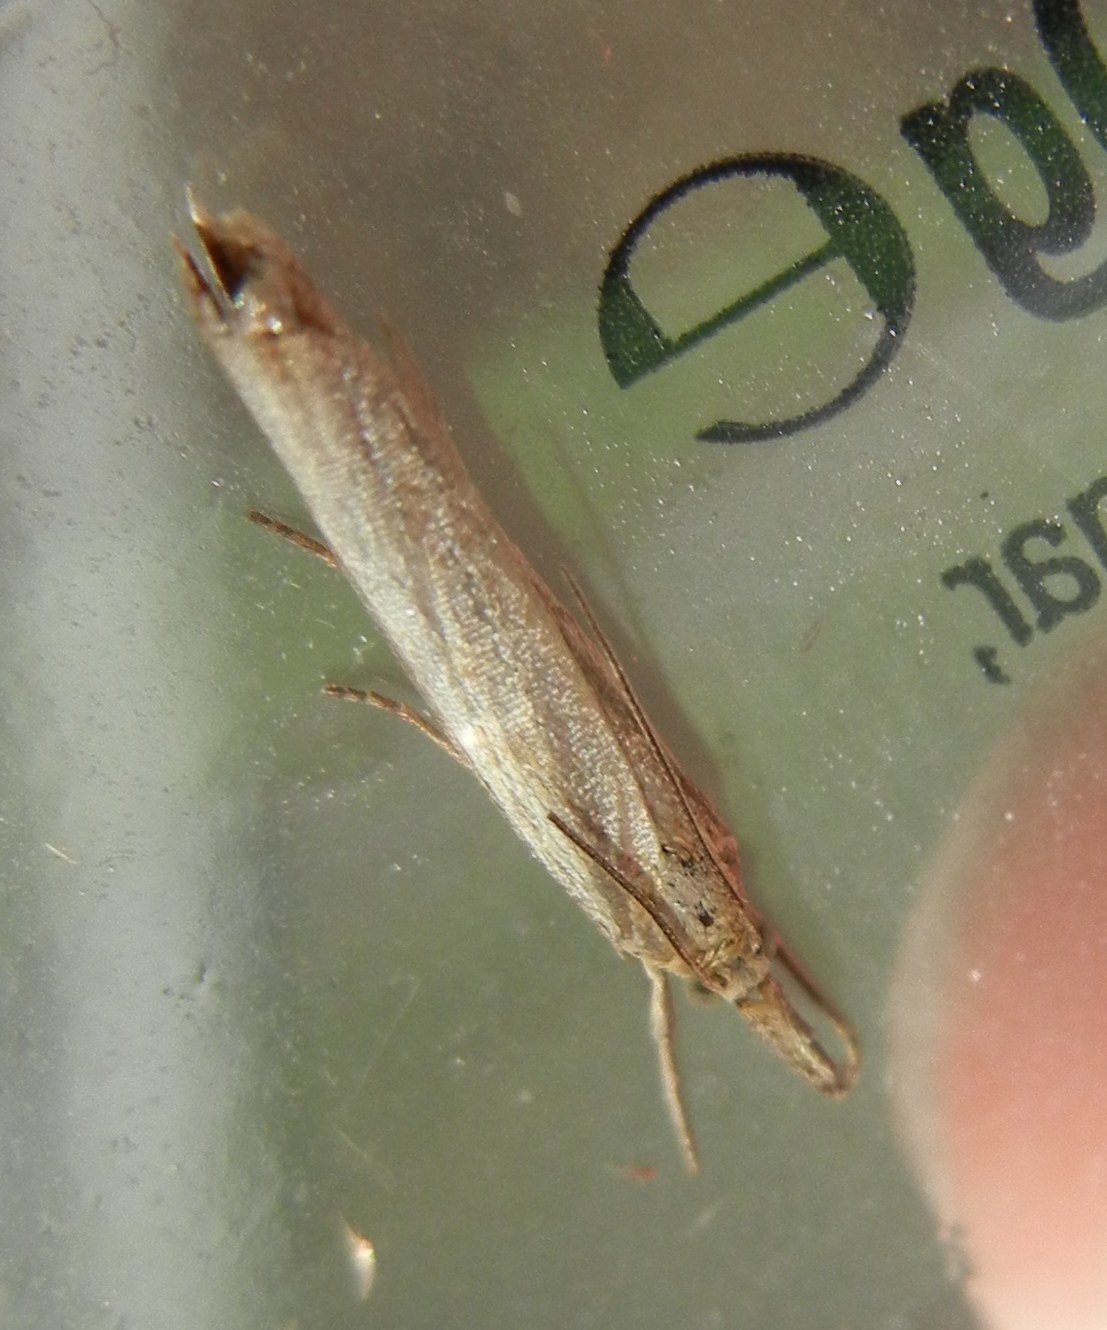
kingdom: Animalia
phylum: Arthropoda
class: Insecta
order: Lepidoptera
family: Crambidae
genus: Agriphila
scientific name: Agriphila straminella
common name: Straw grass-veneer
